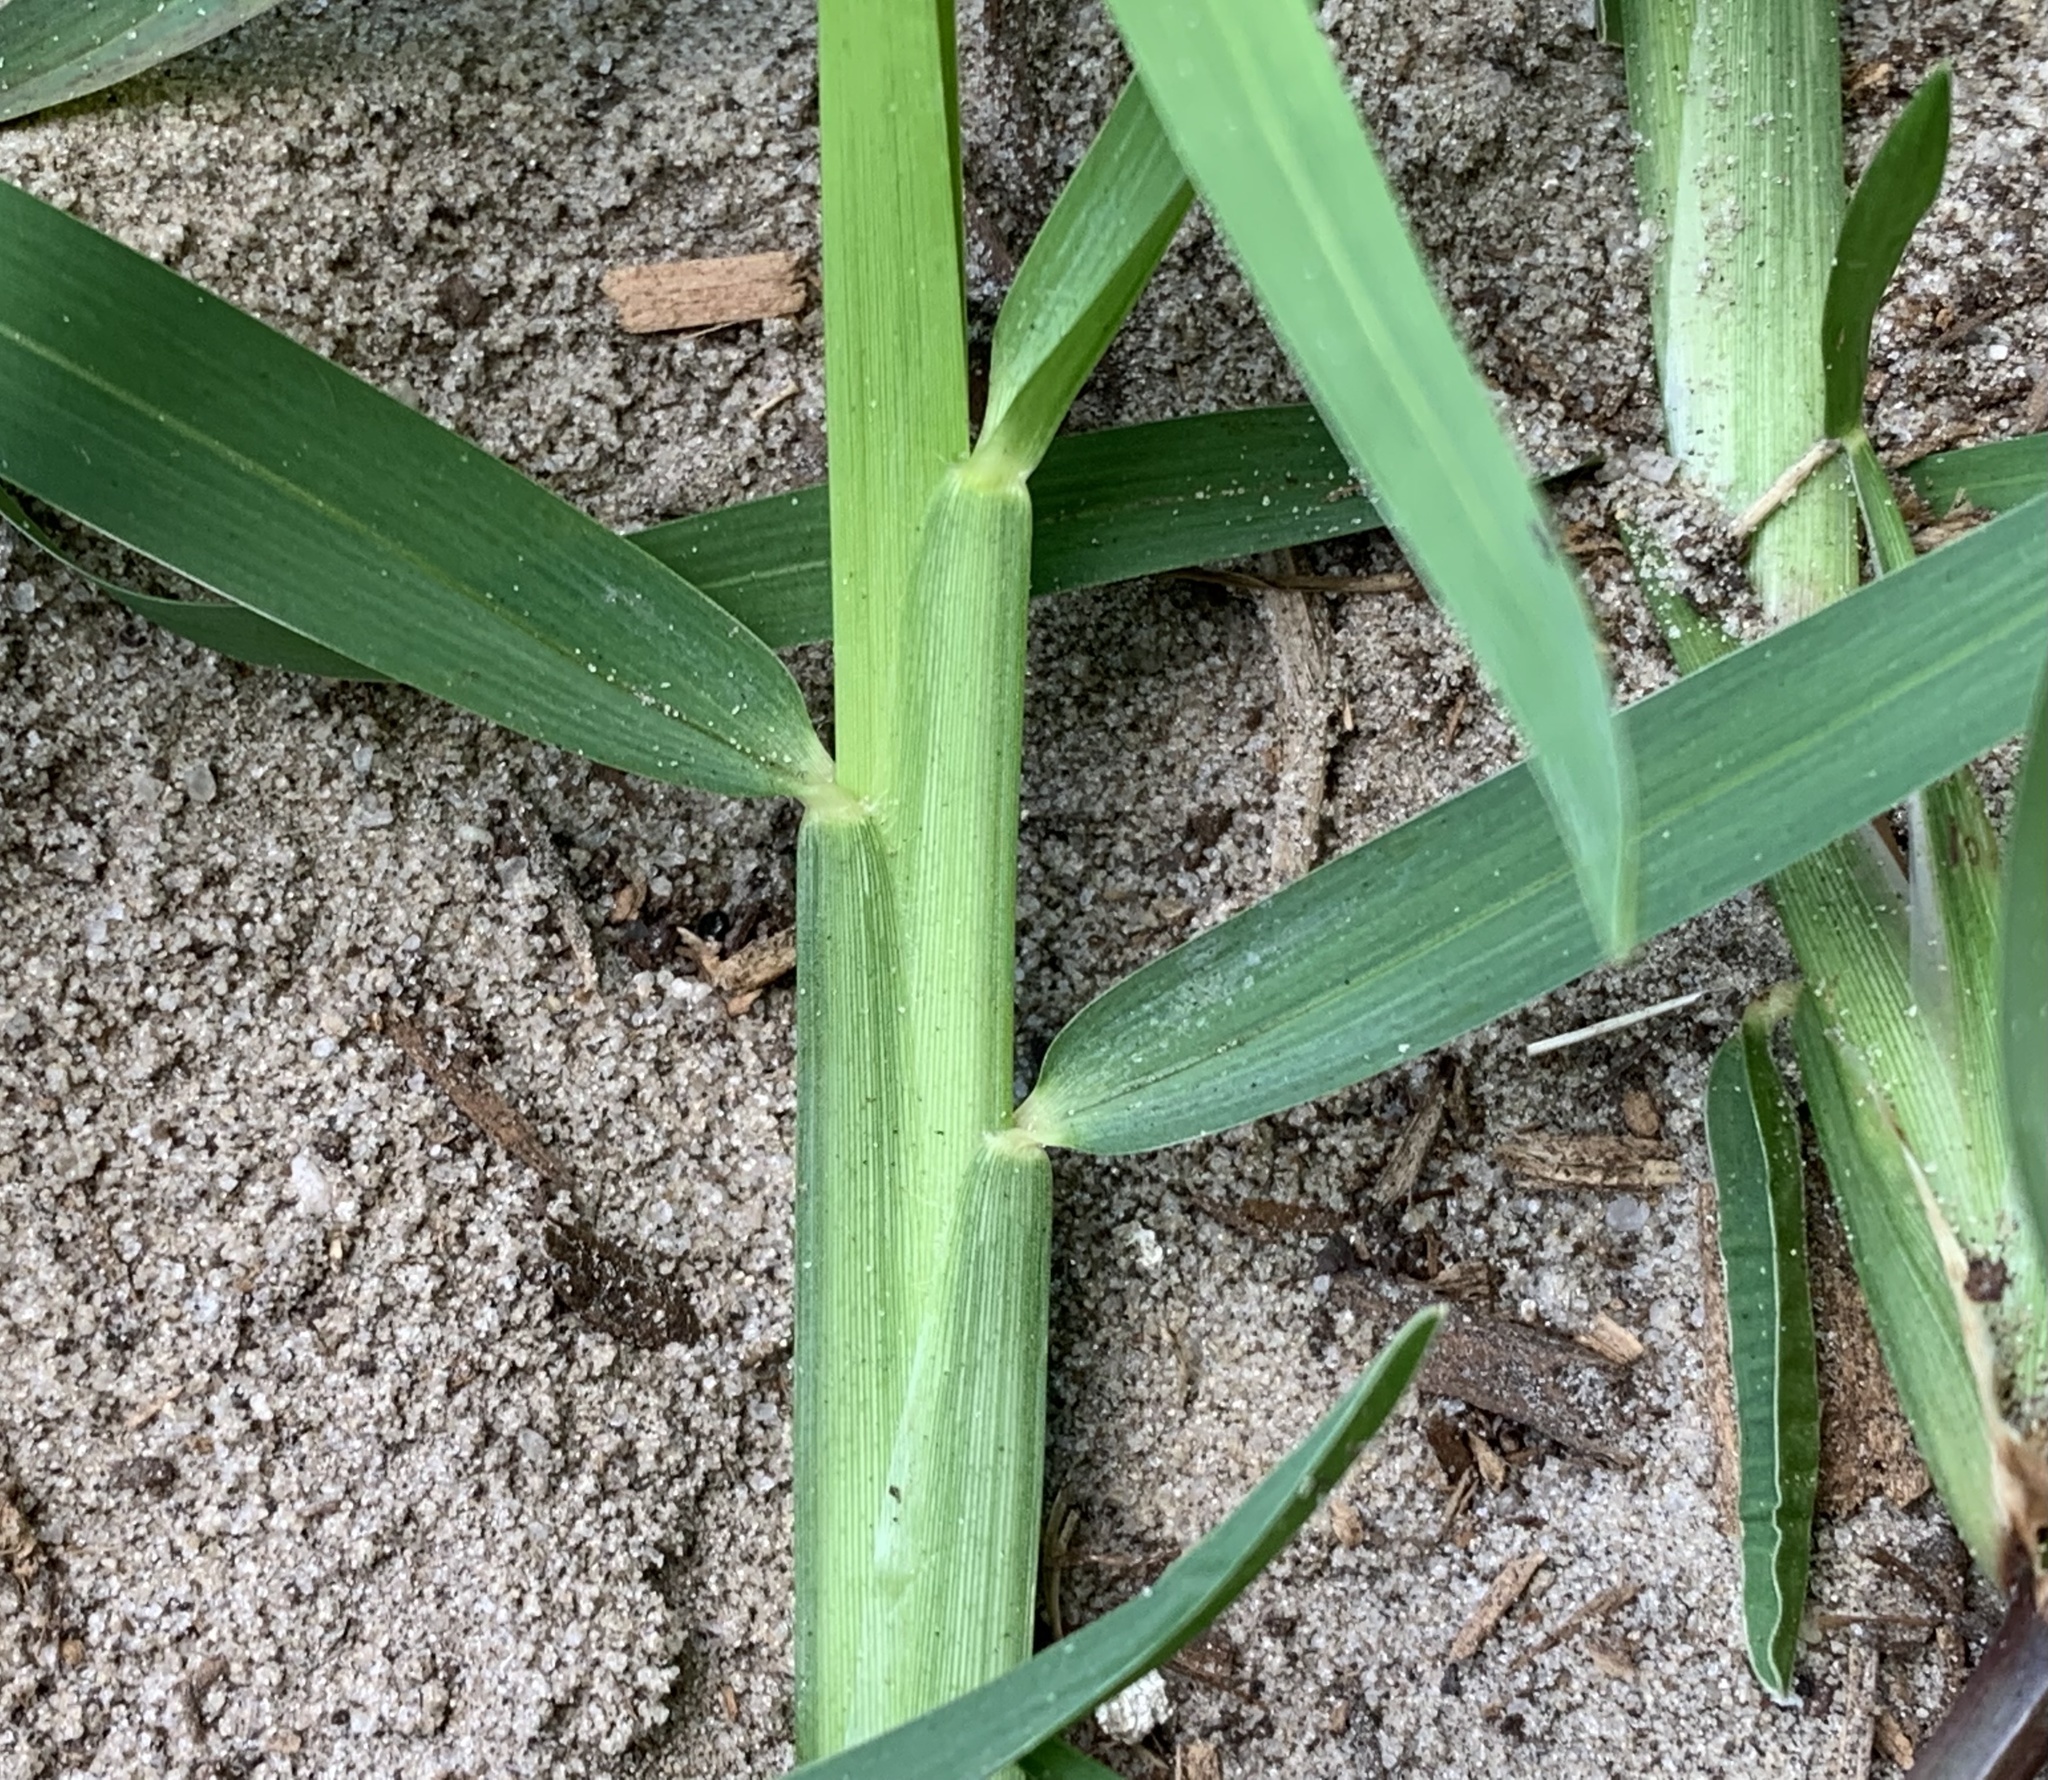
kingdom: Plantae
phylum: Tracheophyta
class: Liliopsida
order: Poales
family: Poaceae
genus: Stenotaphrum
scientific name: Stenotaphrum secundatum
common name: St. augustine grass
